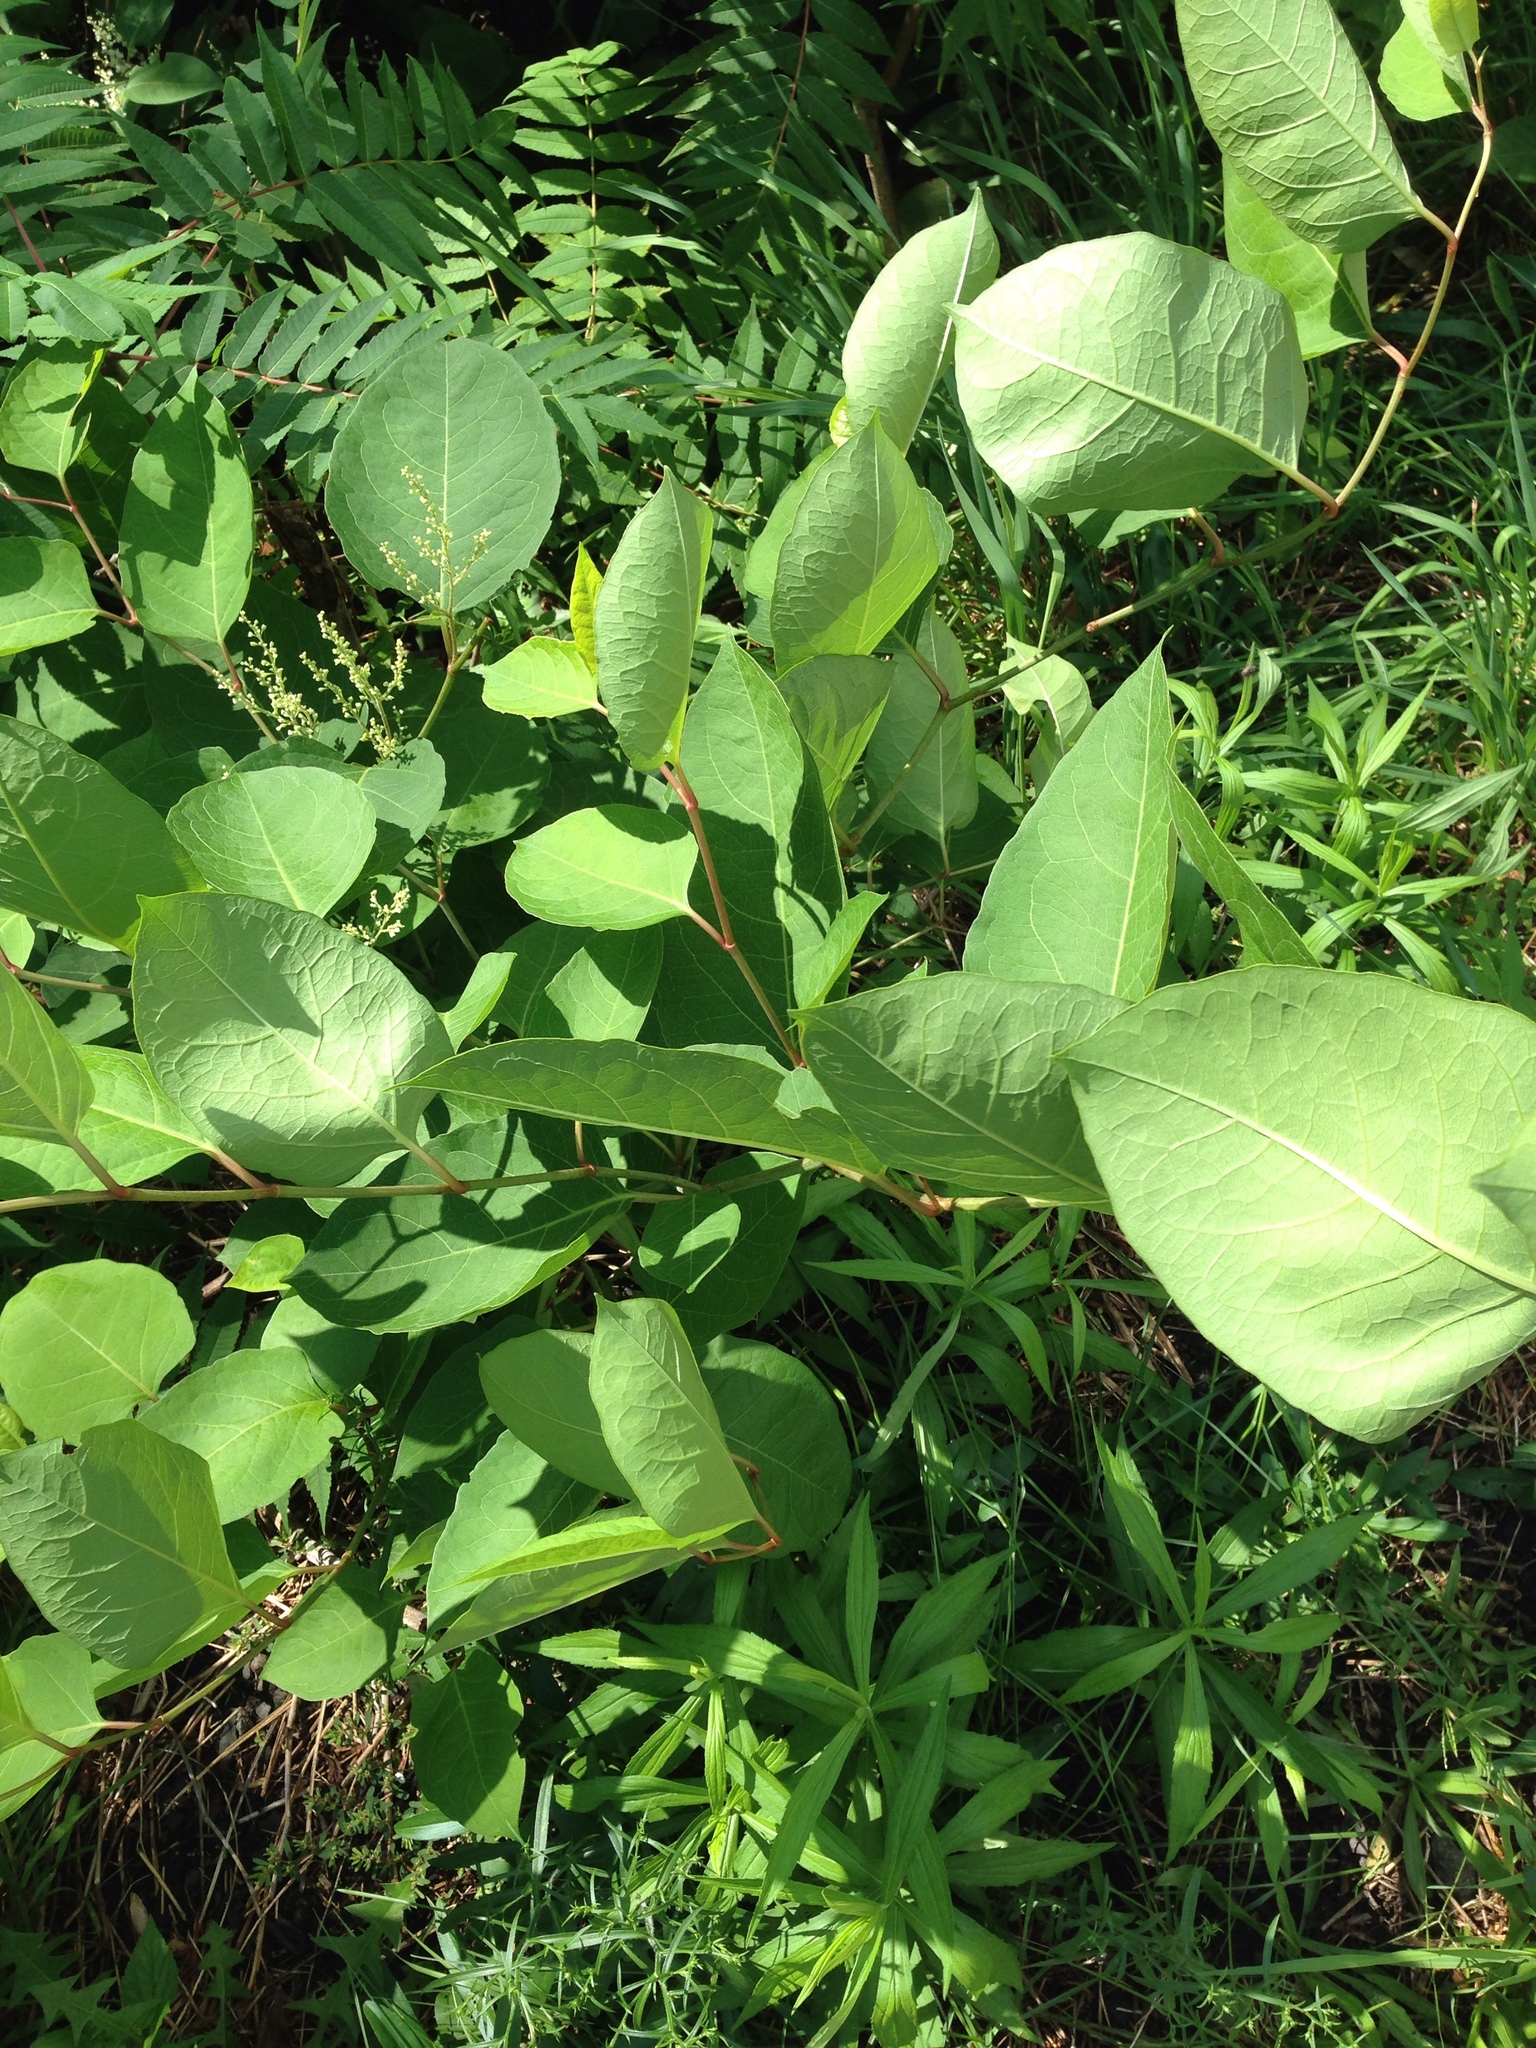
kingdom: Plantae
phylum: Tracheophyta
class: Magnoliopsida
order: Caryophyllales
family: Polygonaceae
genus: Reynoutria
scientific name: Reynoutria japonica
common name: Japanese knotweed
